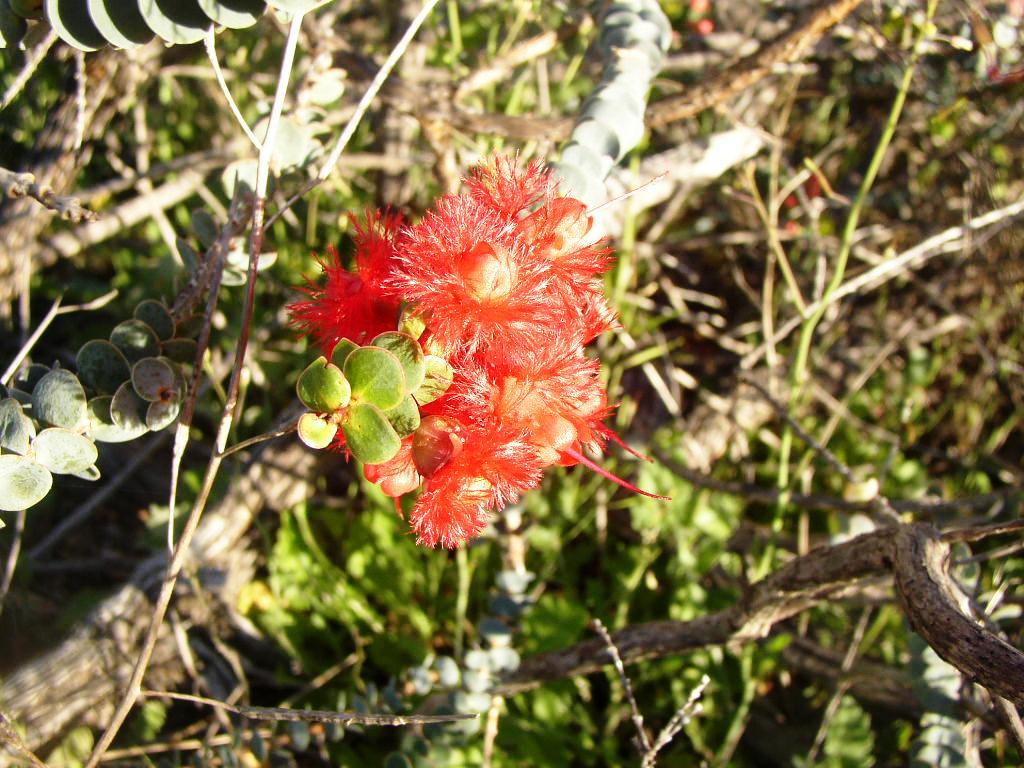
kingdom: Plantae
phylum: Tracheophyta
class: Magnoliopsida
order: Myrtales
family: Myrtaceae
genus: Verticordia
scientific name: Verticordia grandis
